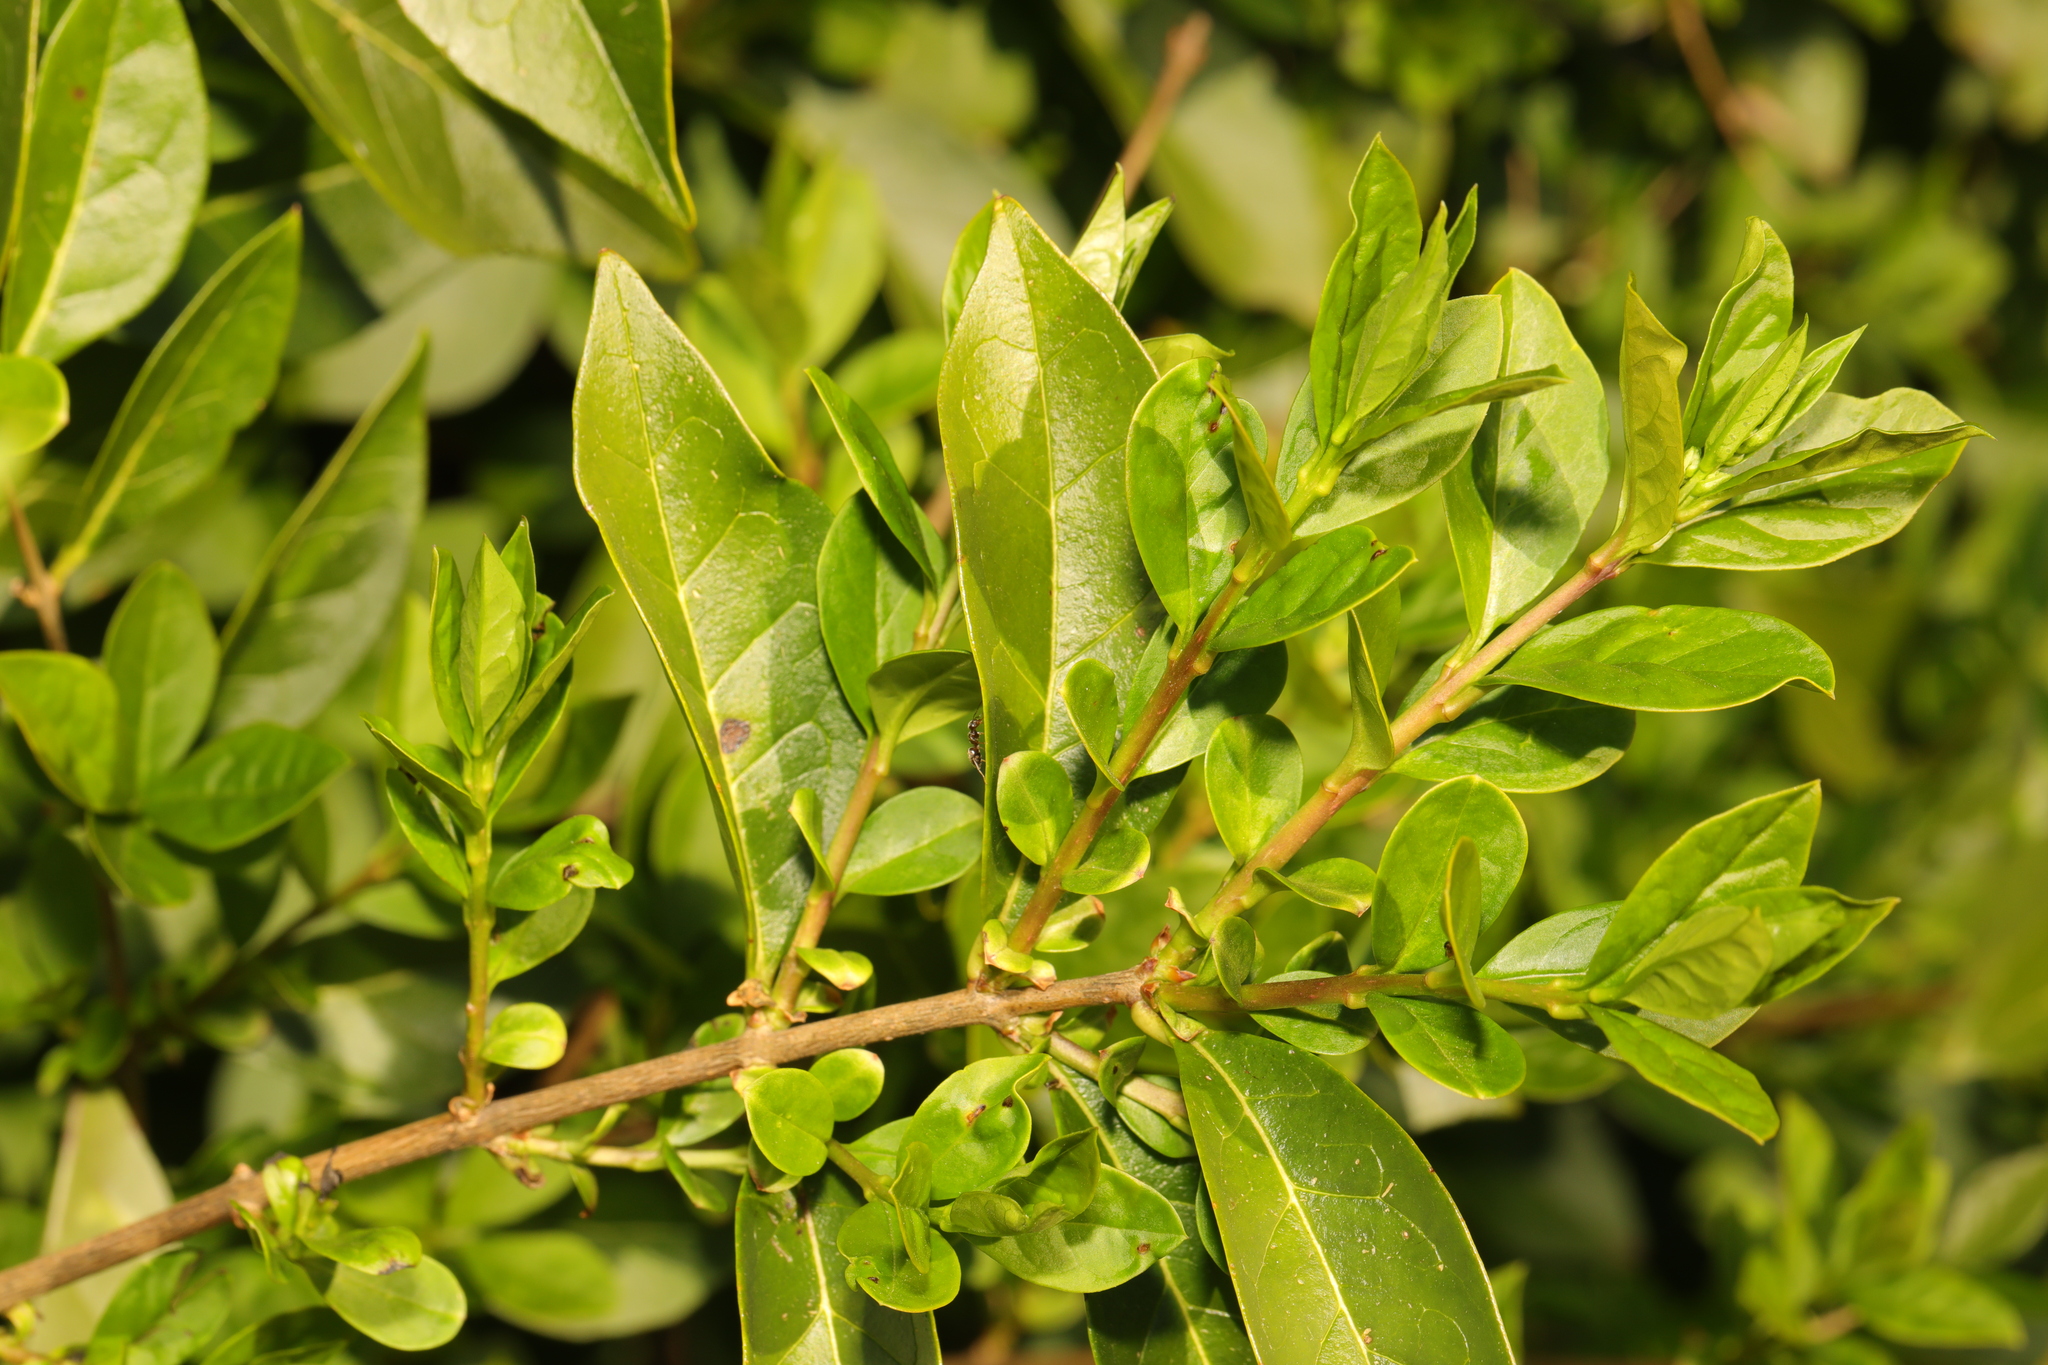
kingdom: Plantae
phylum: Tracheophyta
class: Magnoliopsida
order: Lamiales
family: Oleaceae
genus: Ligustrum
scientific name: Ligustrum ovalifolium
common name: California privet
